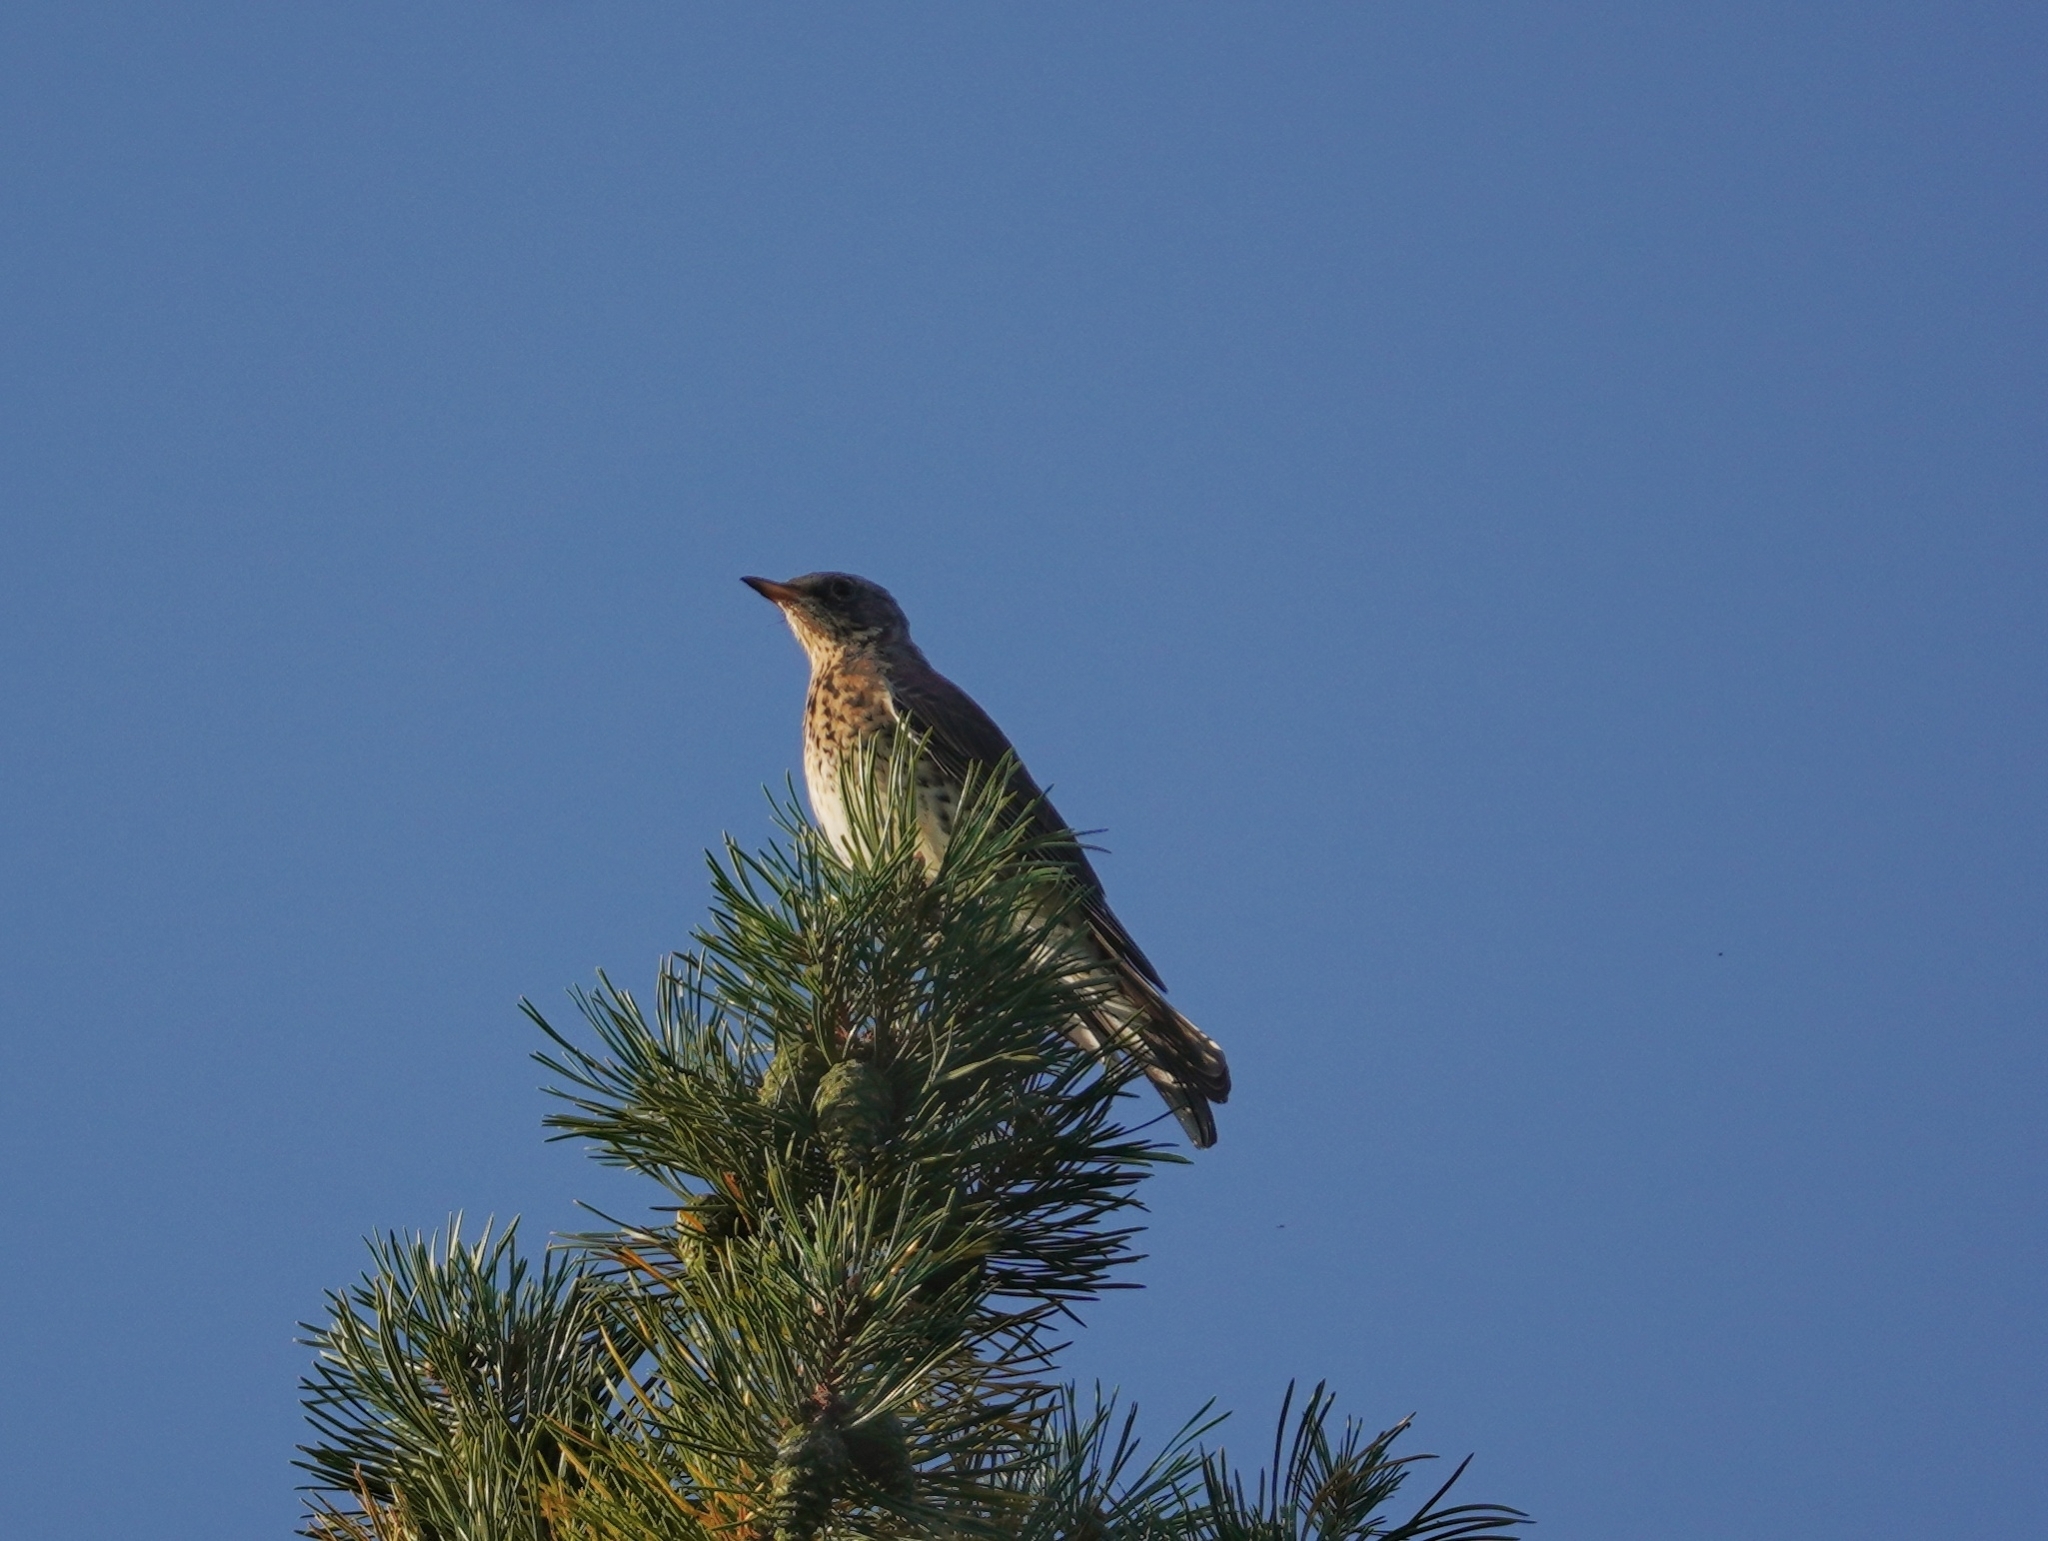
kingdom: Animalia
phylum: Chordata
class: Aves
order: Passeriformes
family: Turdidae
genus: Turdus
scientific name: Turdus pilaris
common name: Fieldfare
